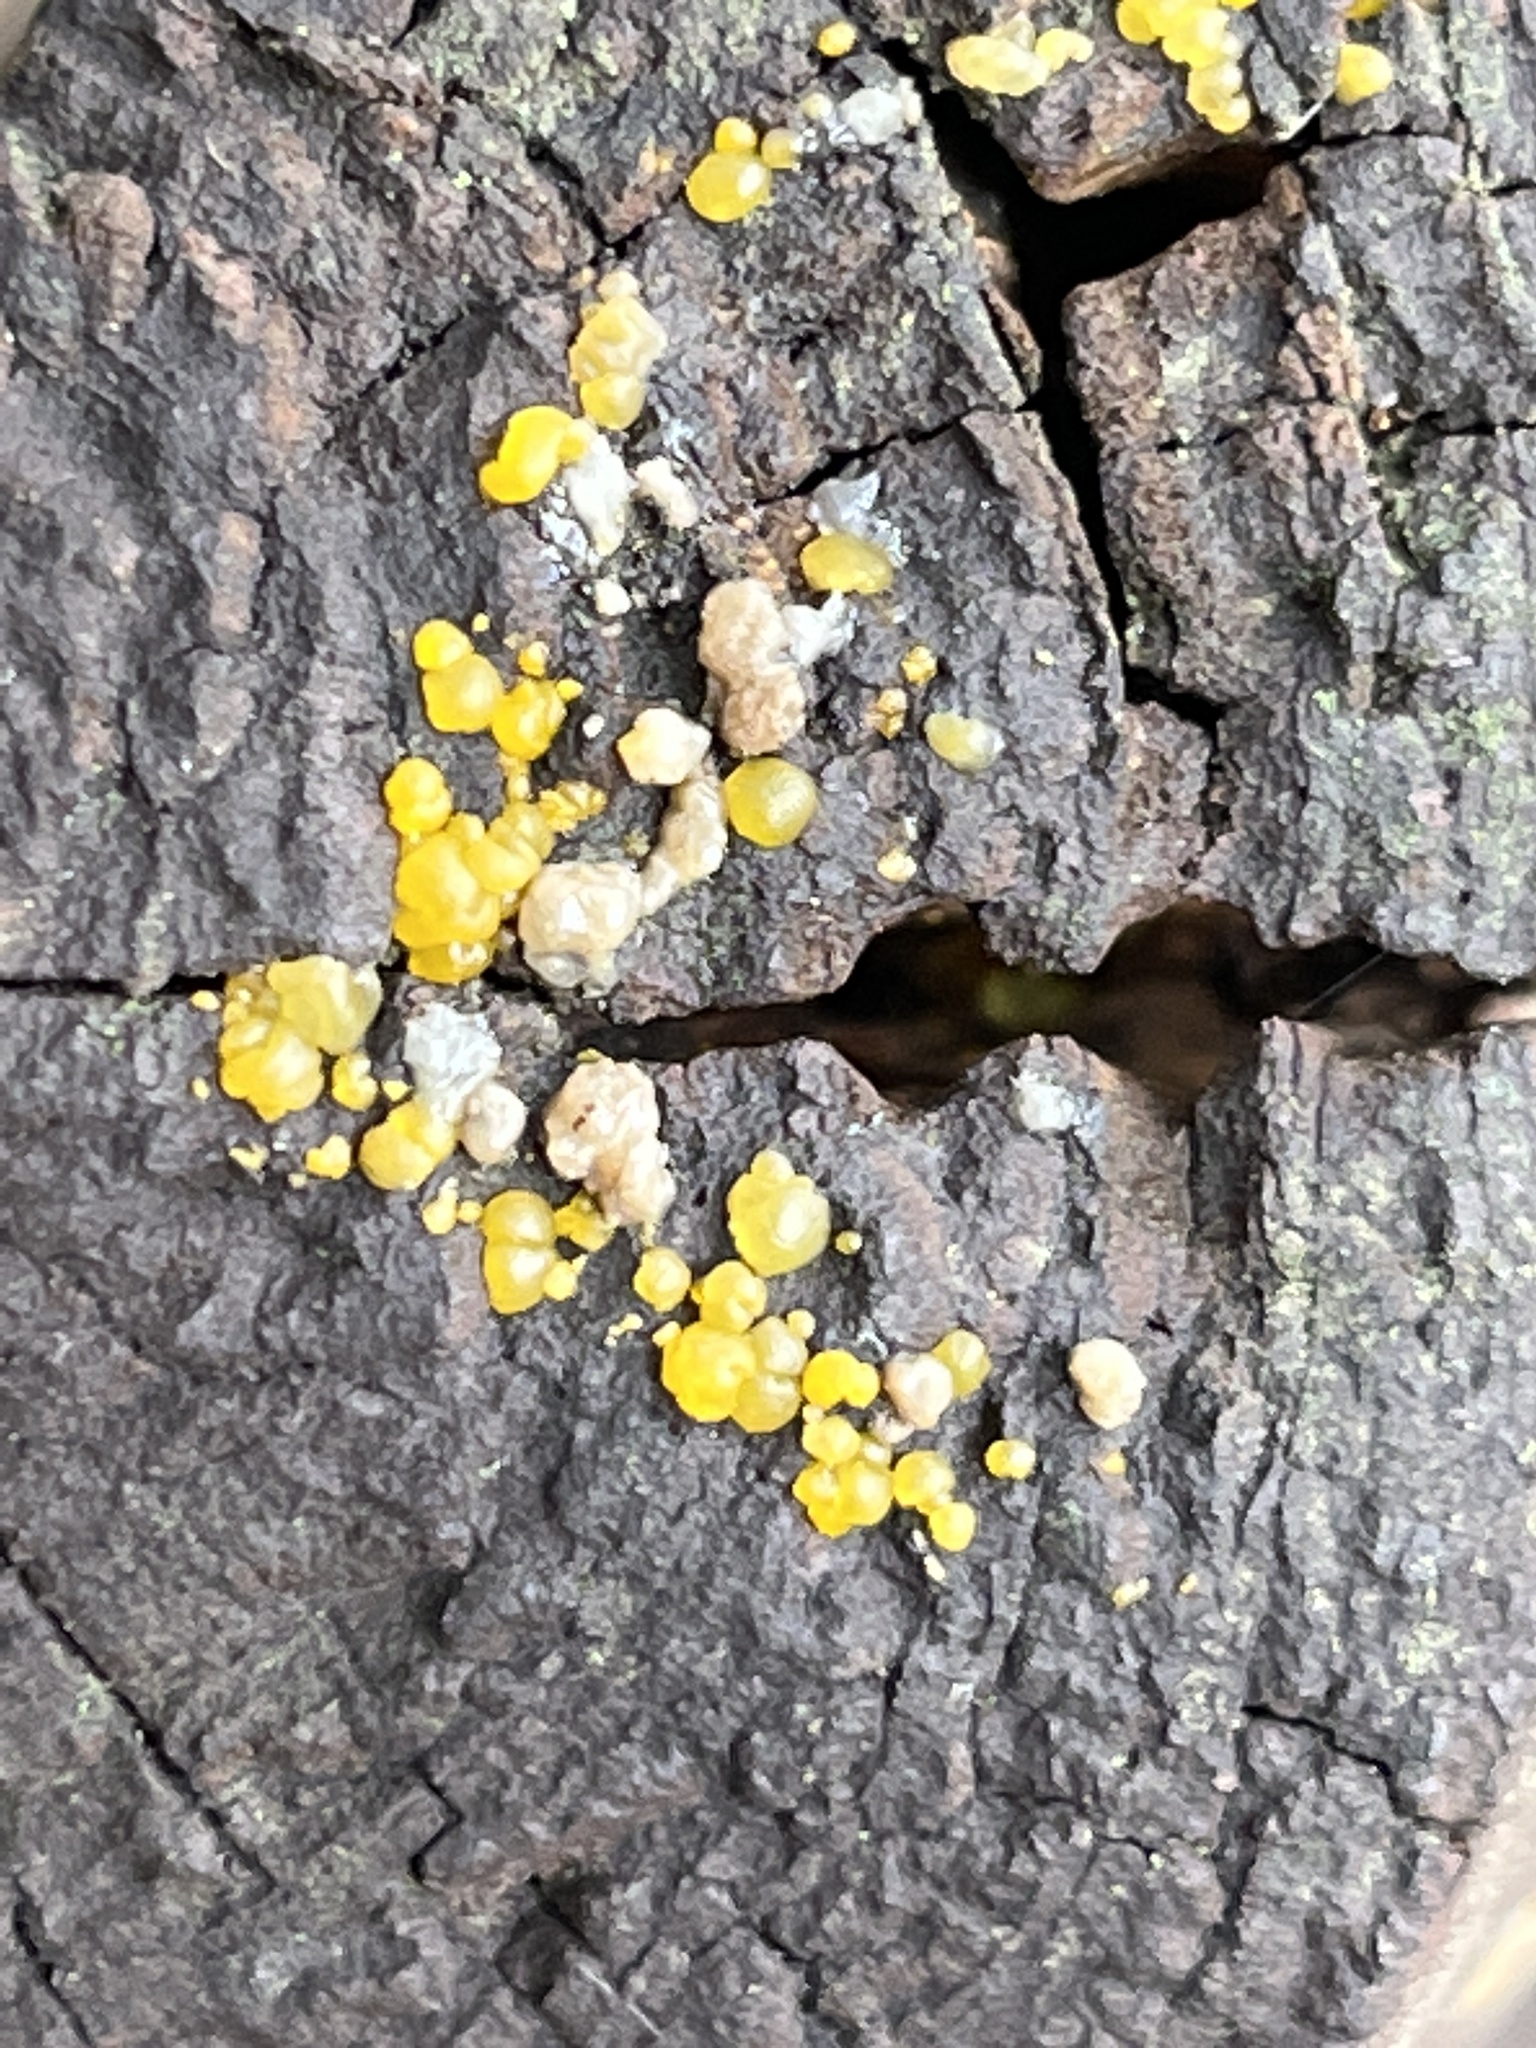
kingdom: Fungi
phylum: Basidiomycota
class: Dacrymycetes
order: Dacrymycetales
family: Dacrymycetaceae
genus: Dacrymyces
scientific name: Dacrymyces stillatus
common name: Common jelly spot
